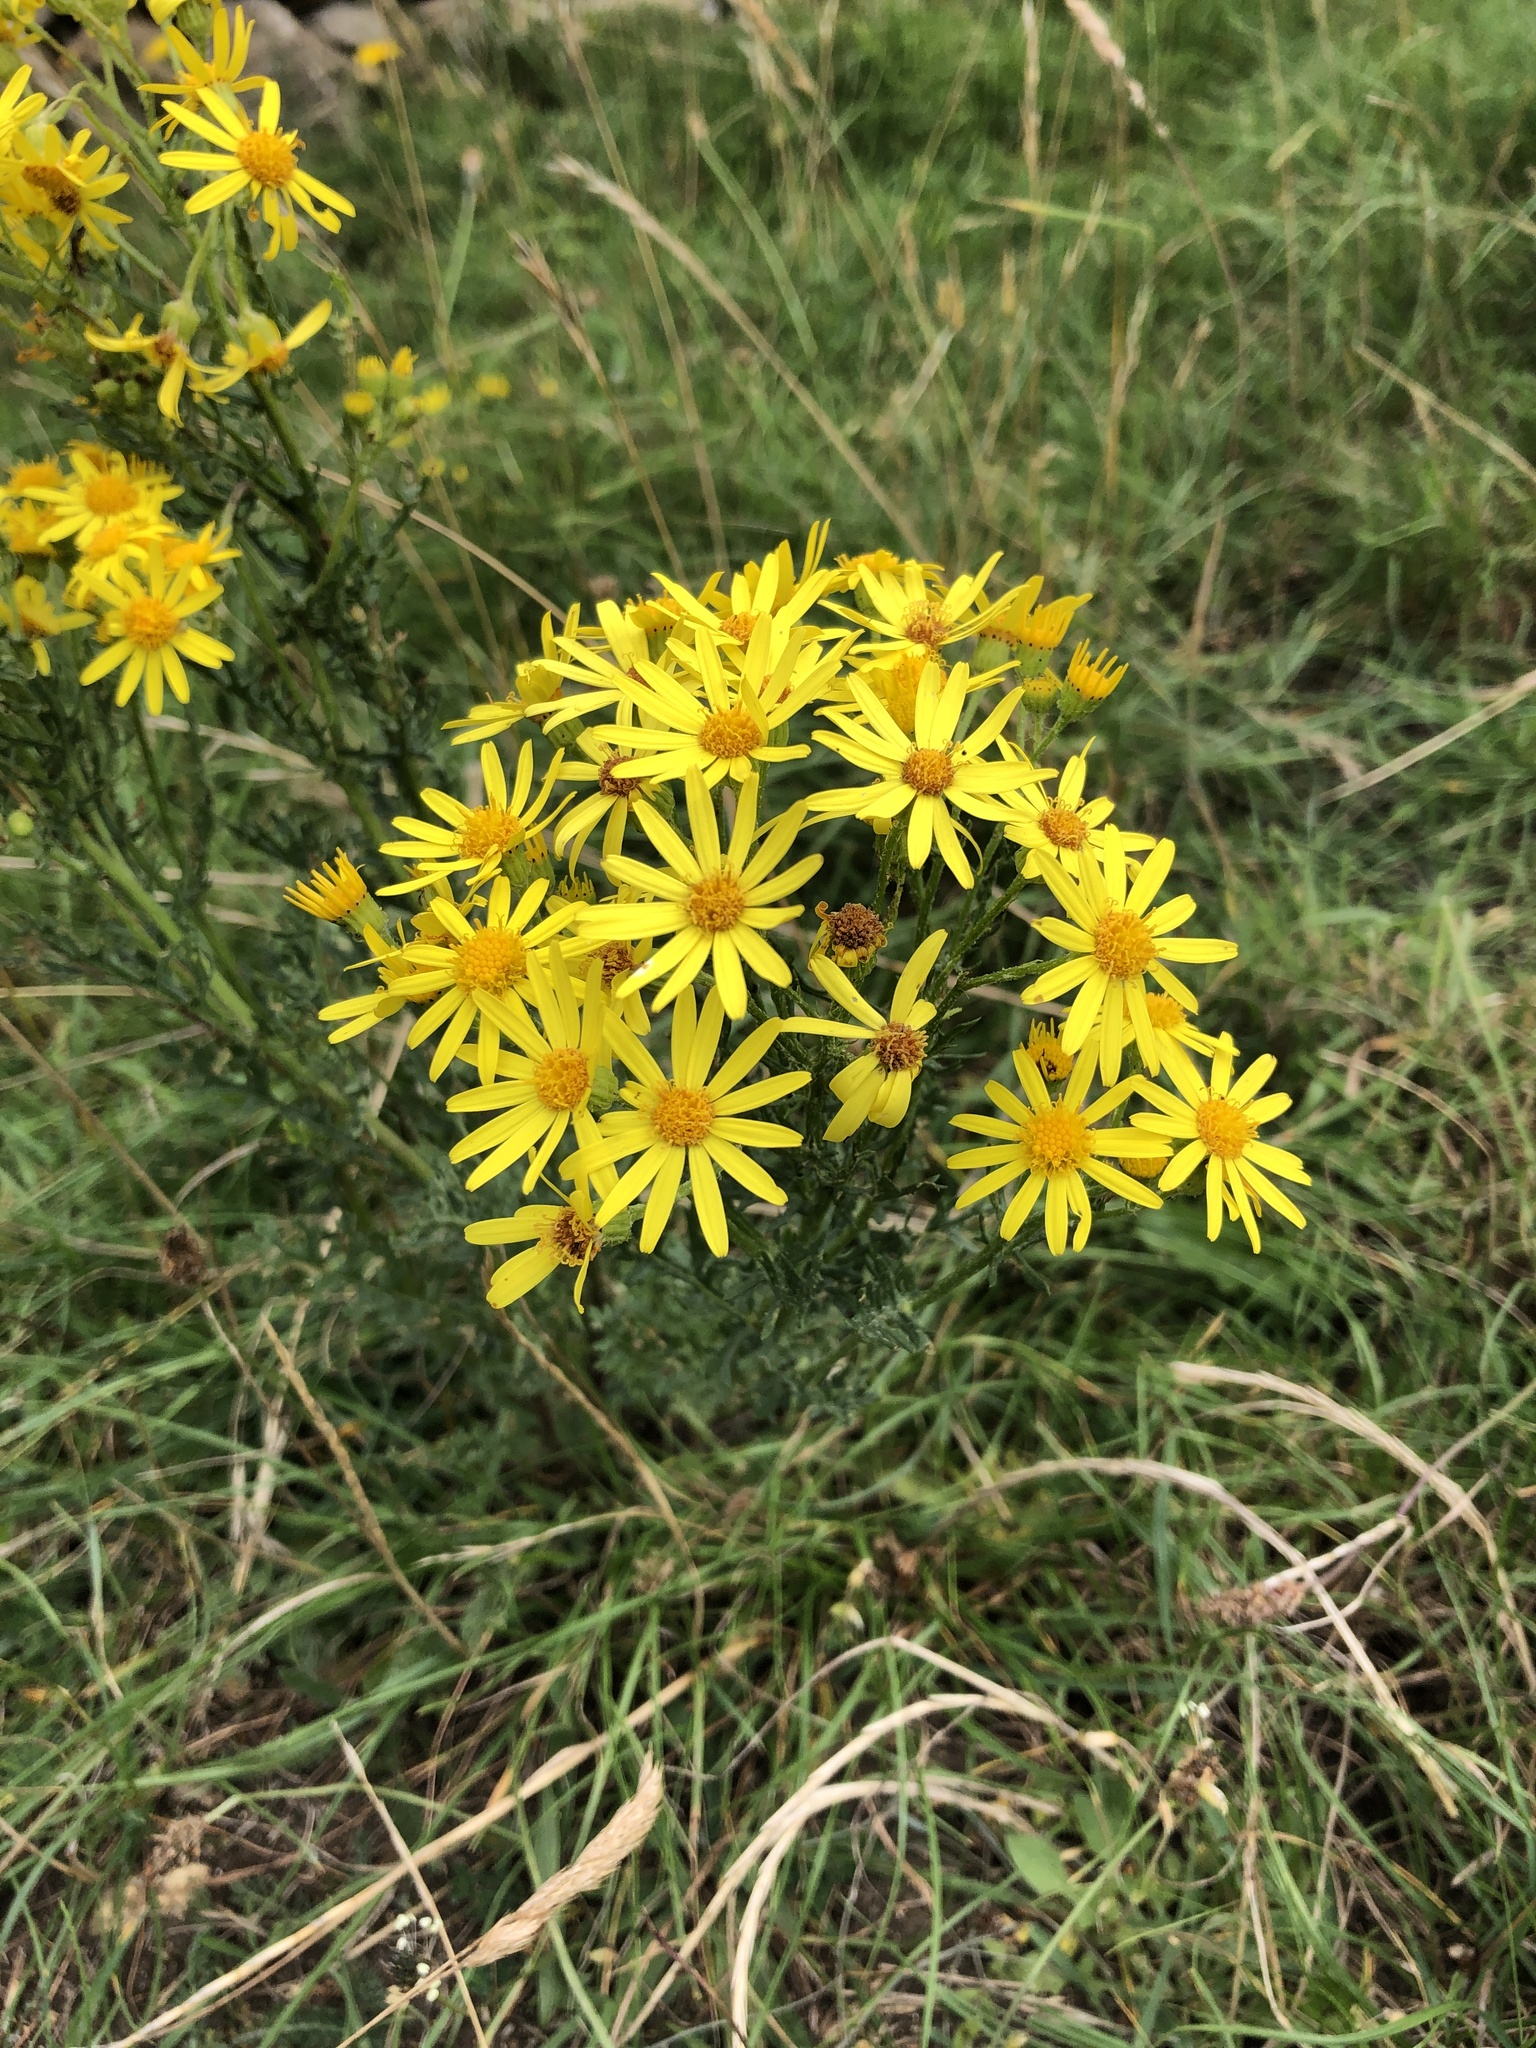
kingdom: Plantae
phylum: Tracheophyta
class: Magnoliopsida
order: Asterales
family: Asteraceae
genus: Jacobaea
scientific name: Jacobaea vulgaris
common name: Stinking willie
